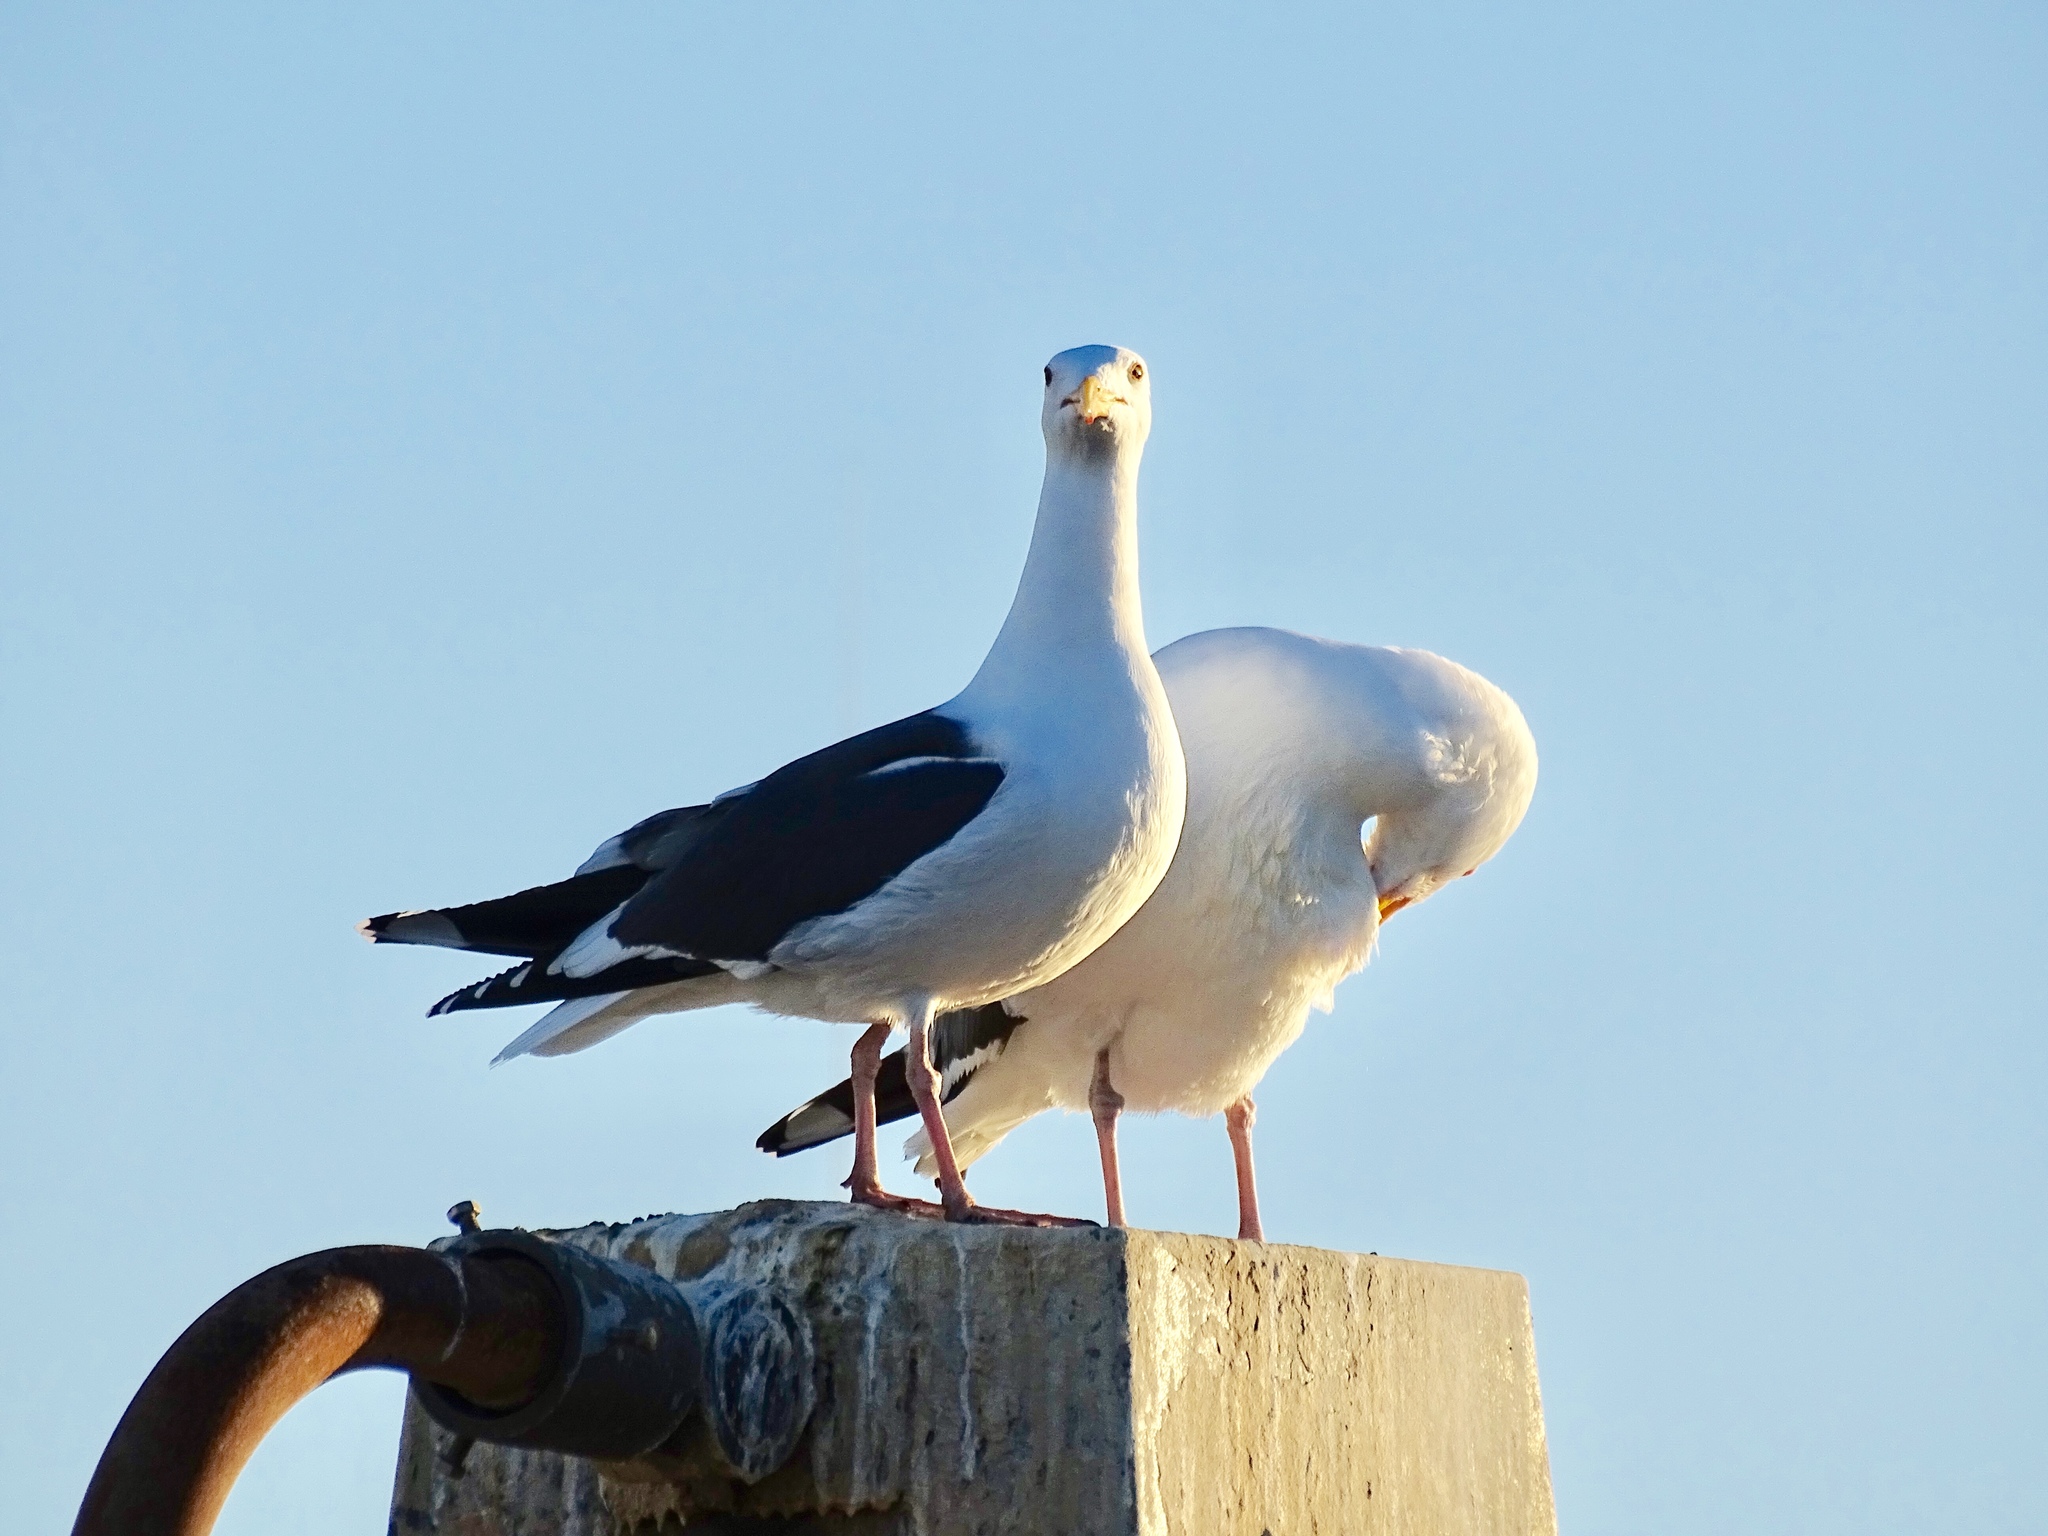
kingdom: Animalia
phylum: Chordata
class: Aves
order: Charadriiformes
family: Laridae
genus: Larus
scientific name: Larus occidentalis
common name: Western gull
